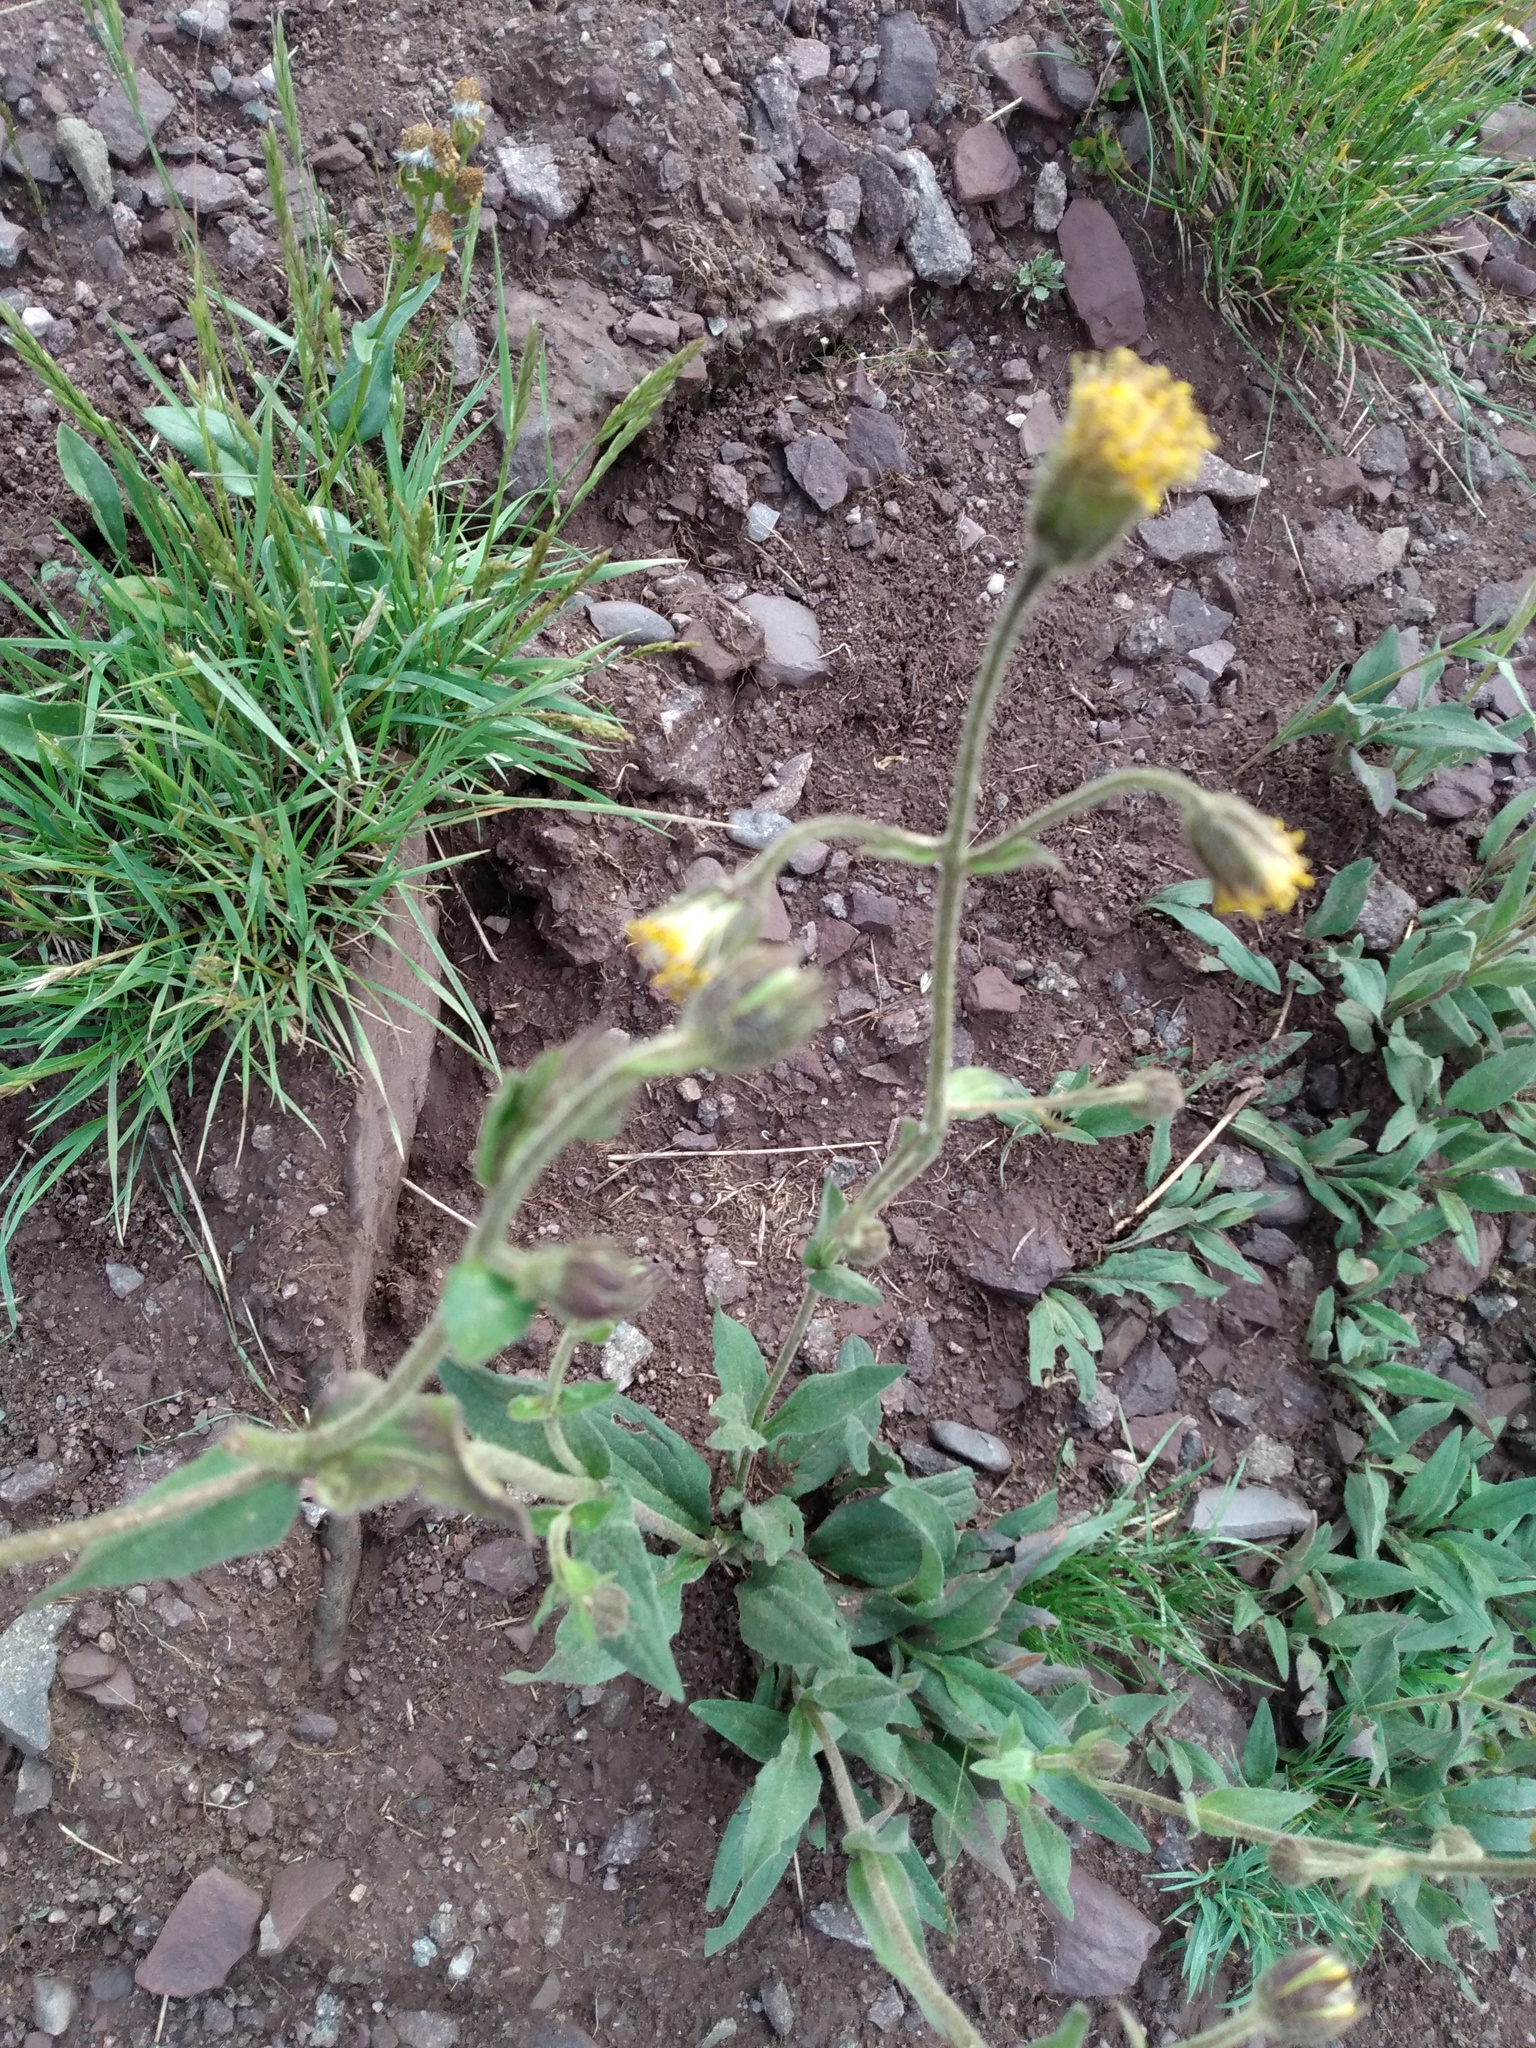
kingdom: Plantae
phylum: Tracheophyta
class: Magnoliopsida
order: Asterales
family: Asteraceae
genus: Arnica
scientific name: Arnica parryi
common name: Parry's arnica
